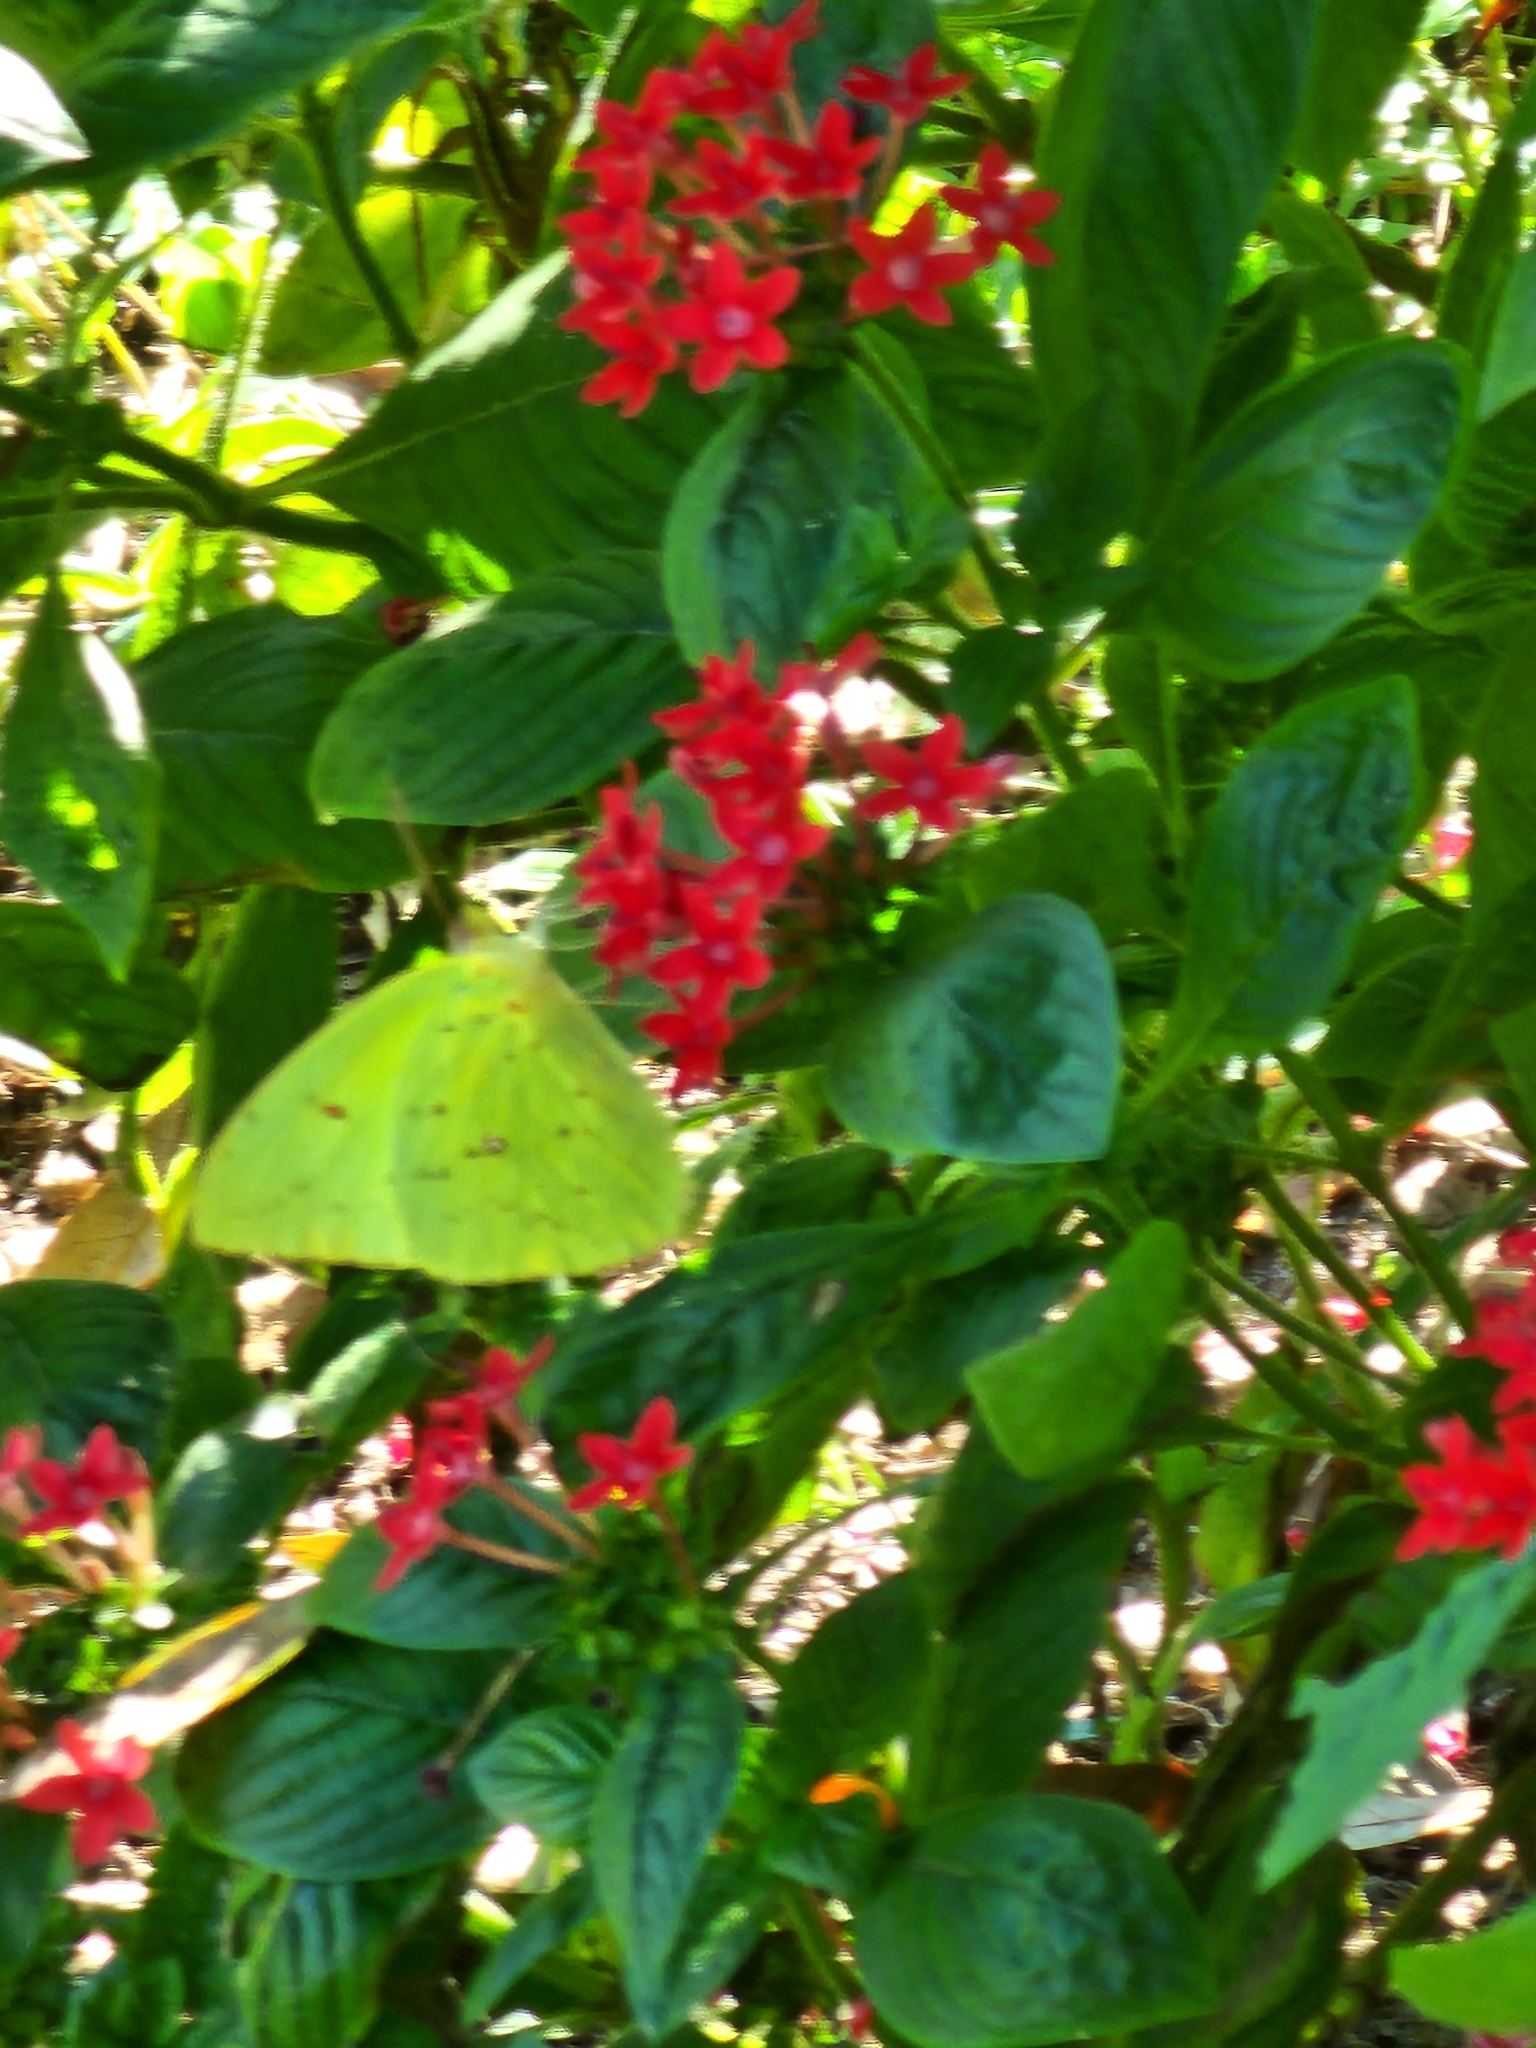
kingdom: Animalia
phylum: Arthropoda
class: Insecta
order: Lepidoptera
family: Pieridae
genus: Phoebis
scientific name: Phoebis sennae
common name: Cloudless sulphur
